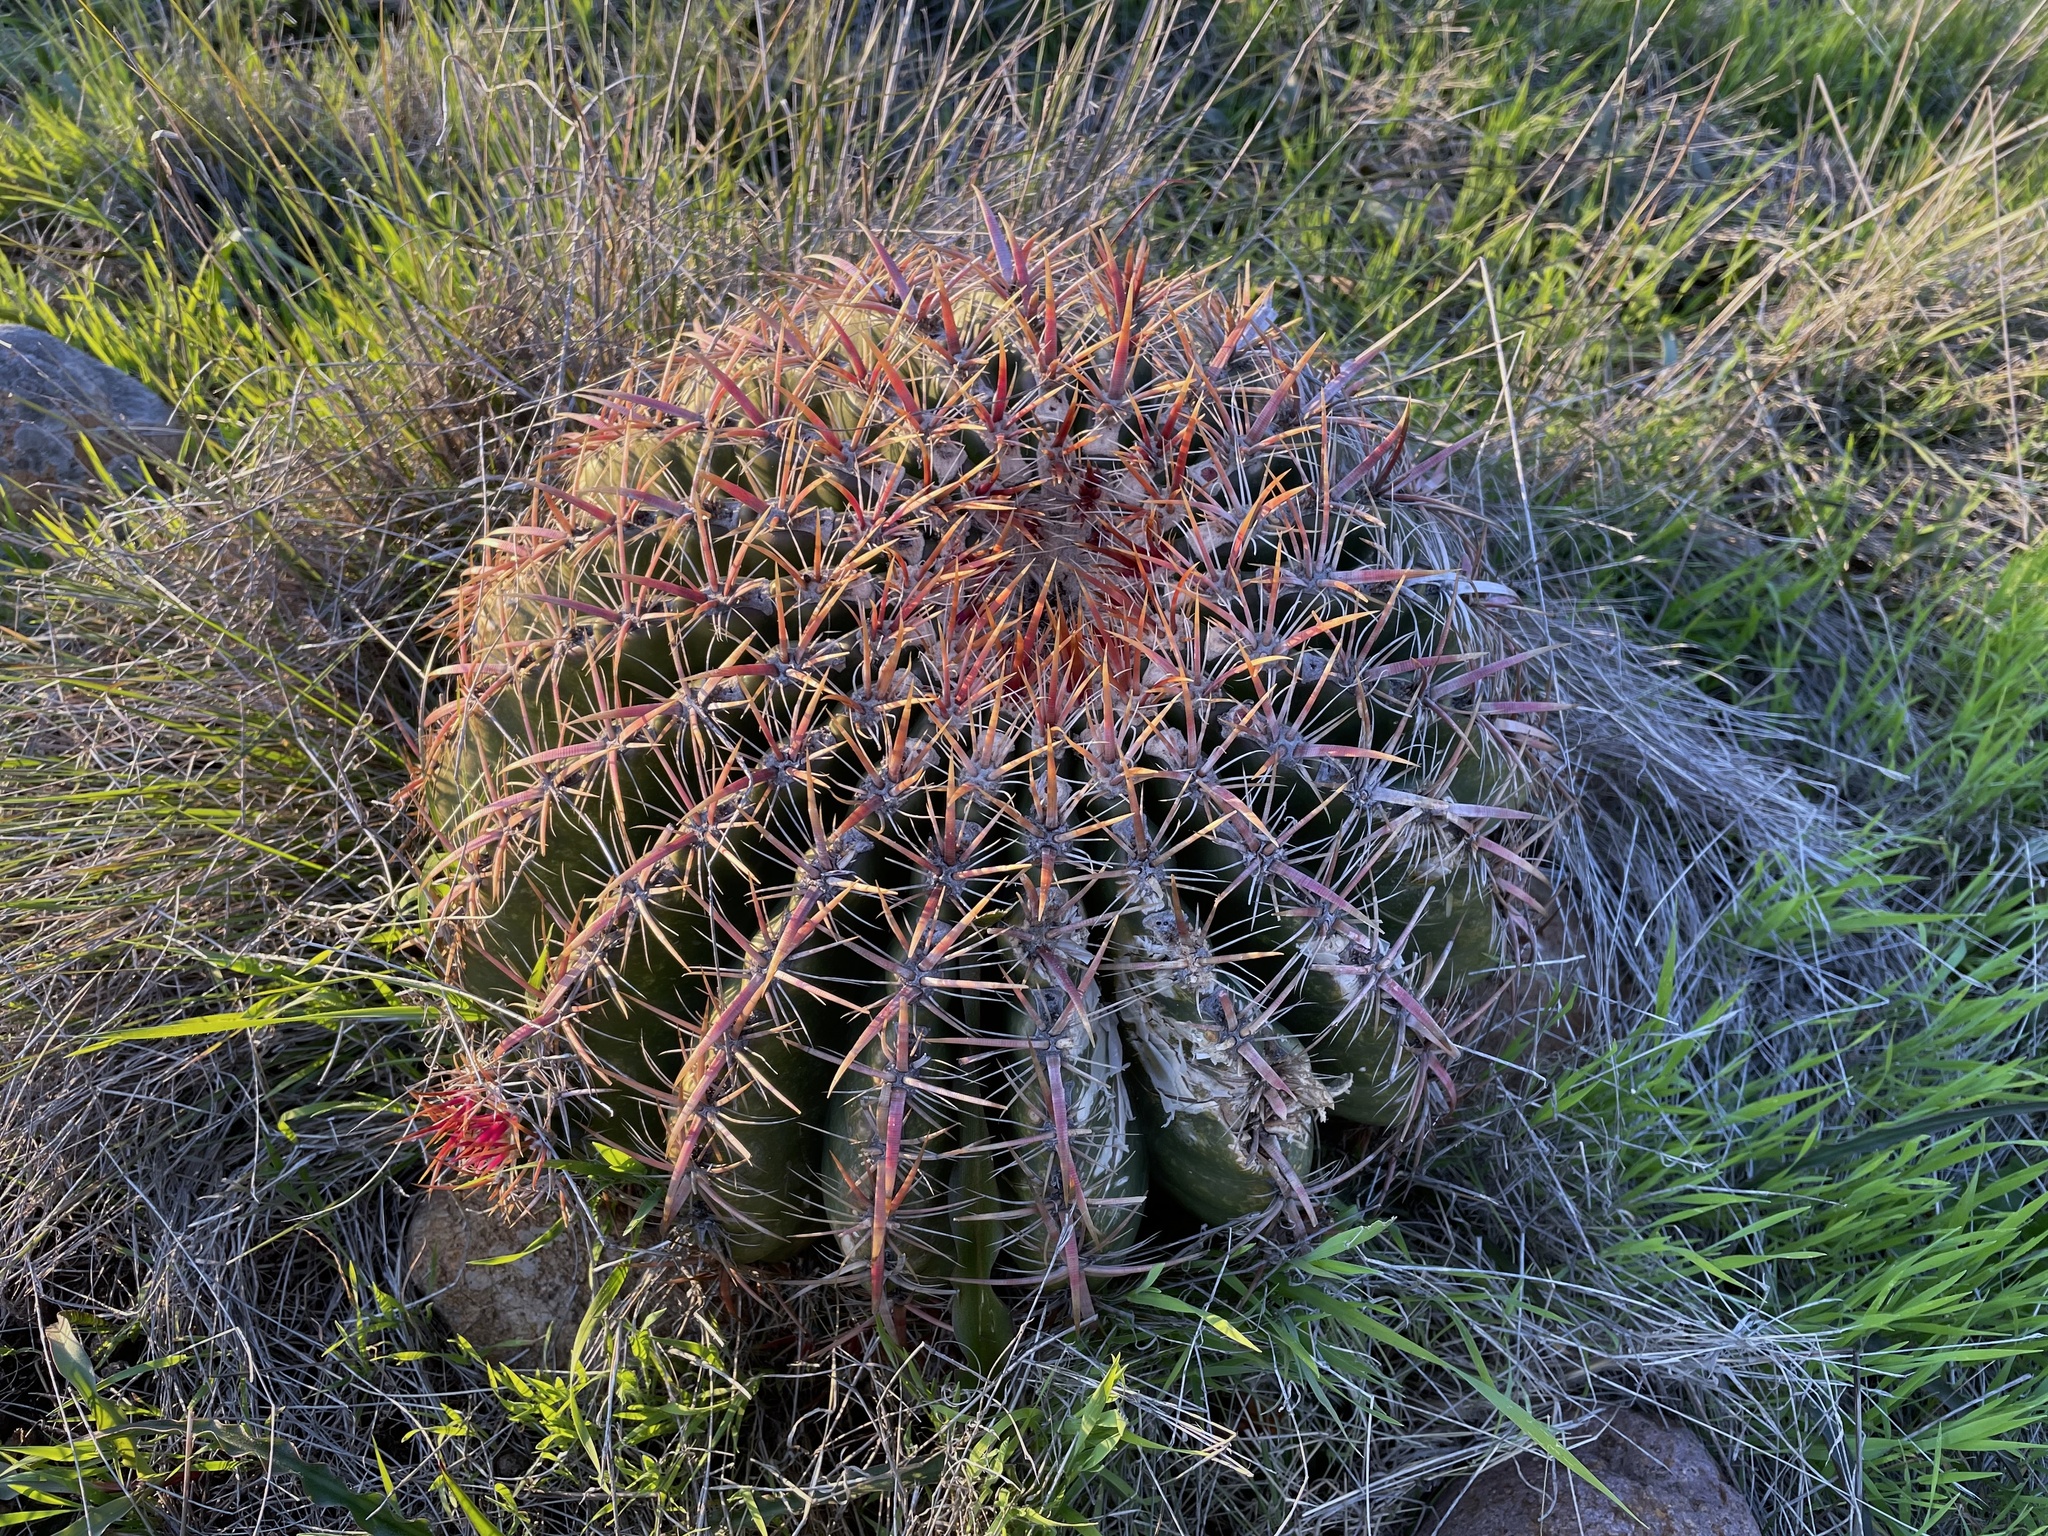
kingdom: Plantae
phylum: Tracheophyta
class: Magnoliopsida
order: Caryophyllales
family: Cactaceae
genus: Ferocactus
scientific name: Ferocactus viridescens
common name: San diego barrel cactus
